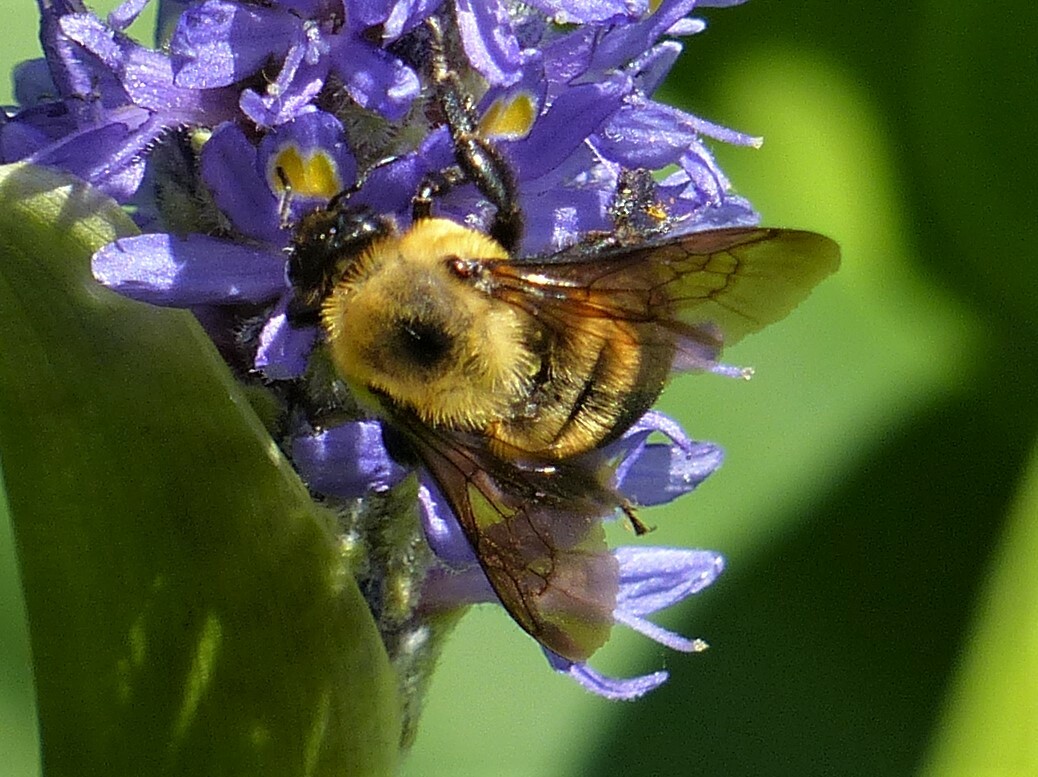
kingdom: Animalia
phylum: Arthropoda
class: Insecta
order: Hymenoptera
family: Apidae
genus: Bombus
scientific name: Bombus griseocollis
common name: Brown-belted bumble bee
